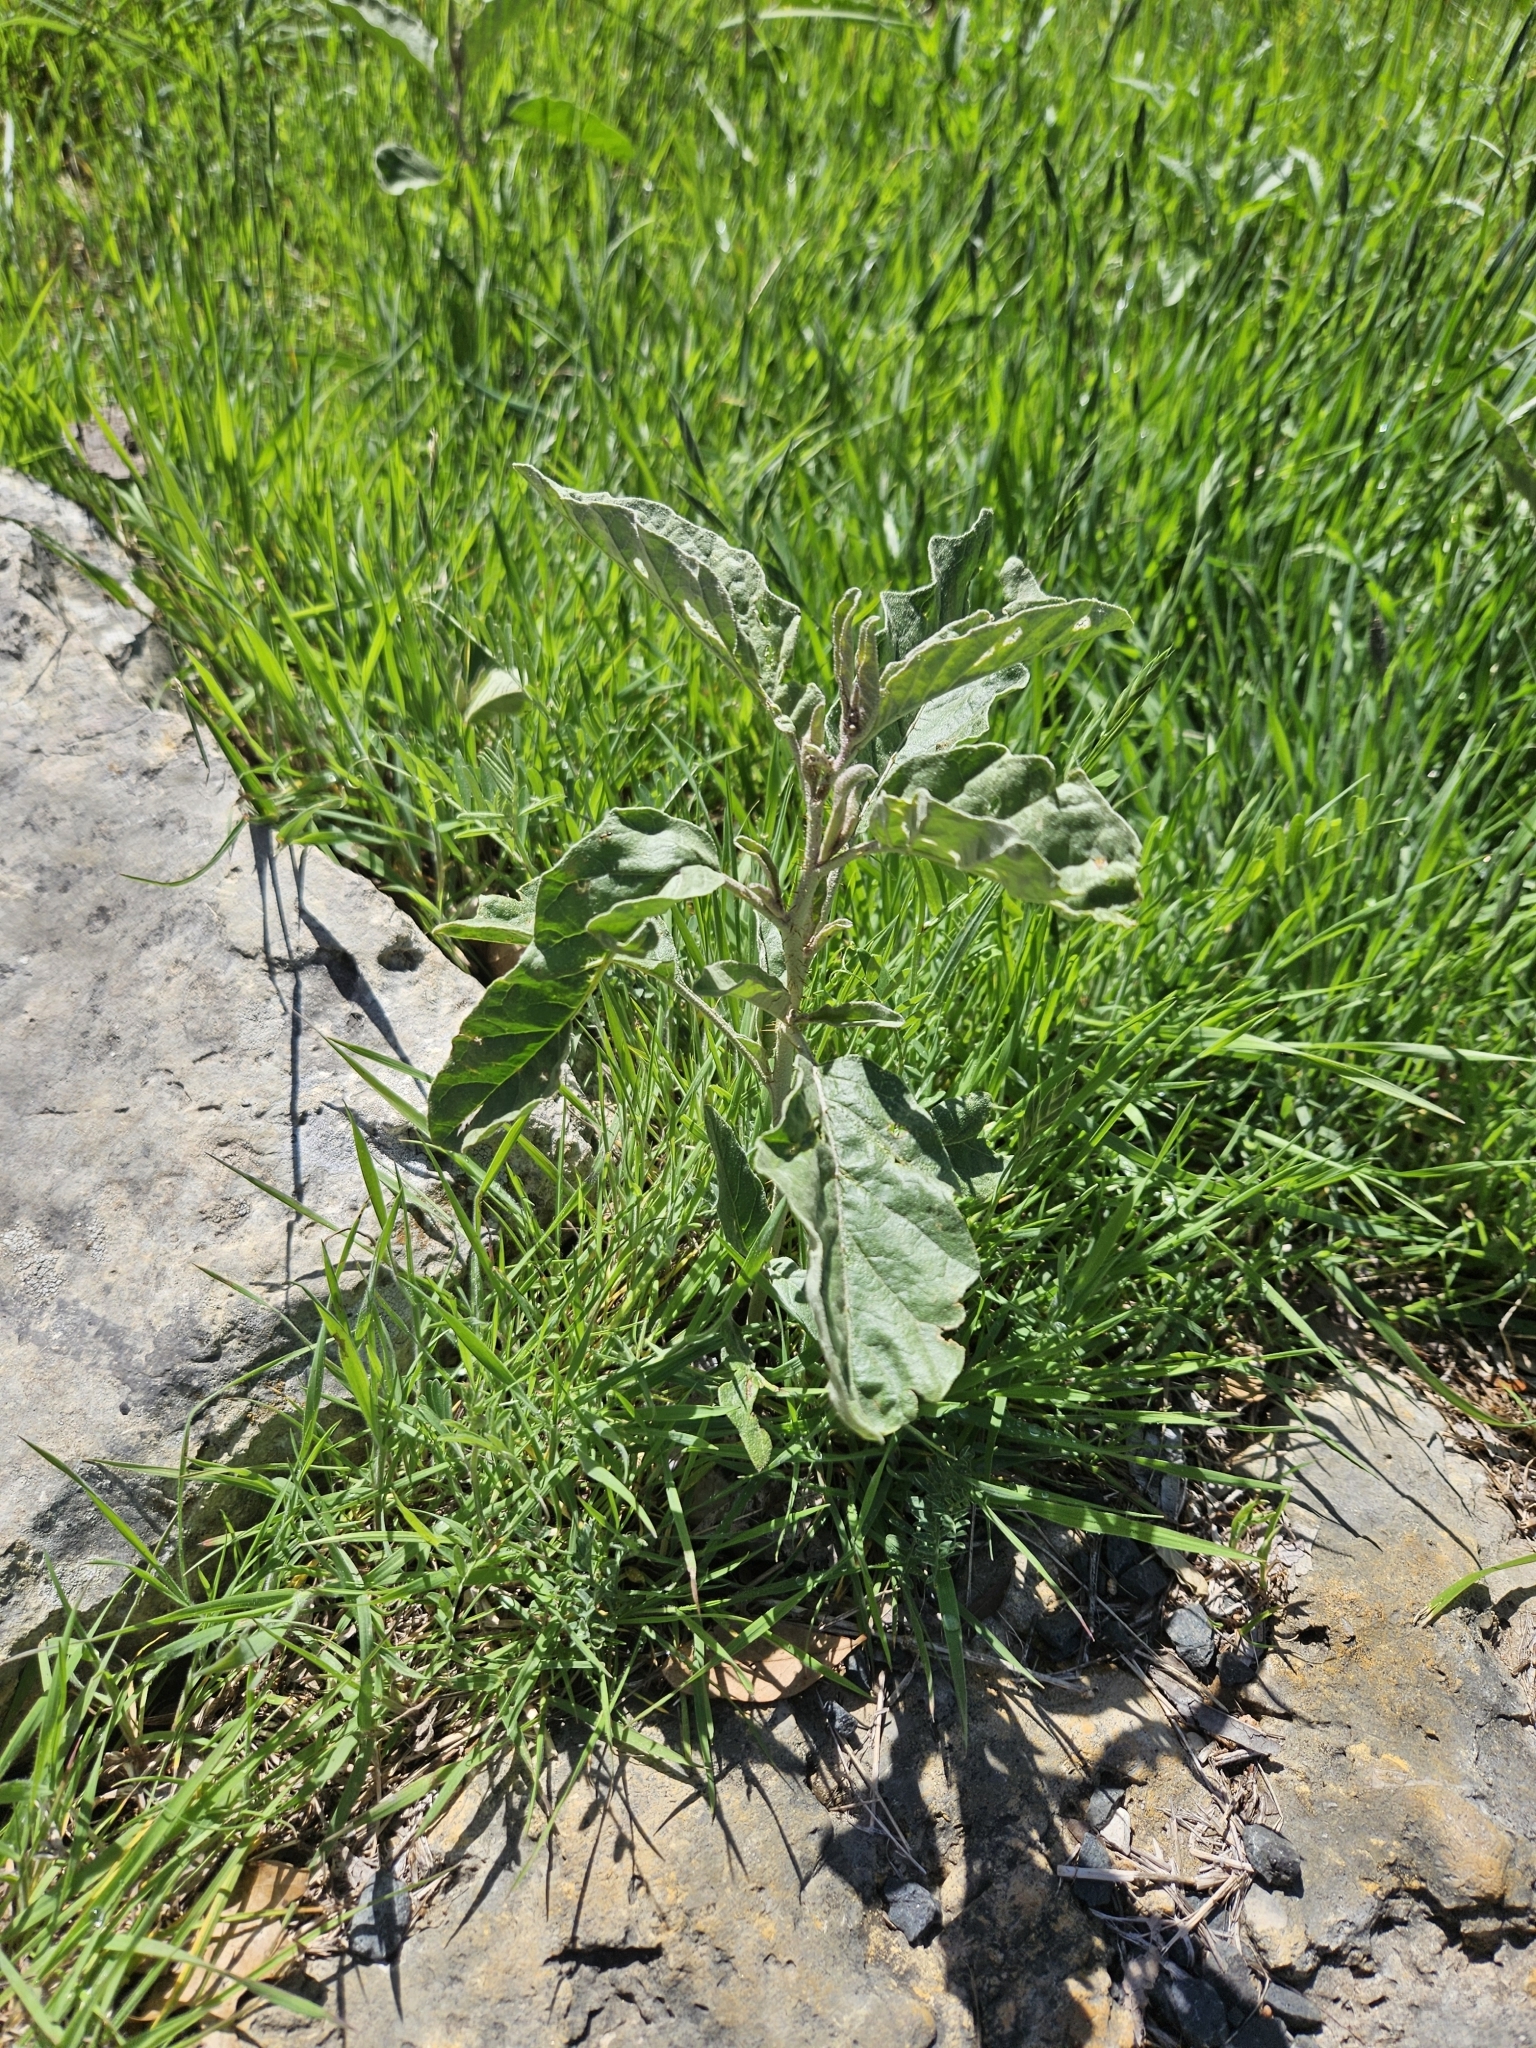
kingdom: Plantae
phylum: Tracheophyta
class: Magnoliopsida
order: Solanales
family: Solanaceae
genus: Solanum
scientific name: Solanum elaeagnifolium
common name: Silverleaf nightshade
